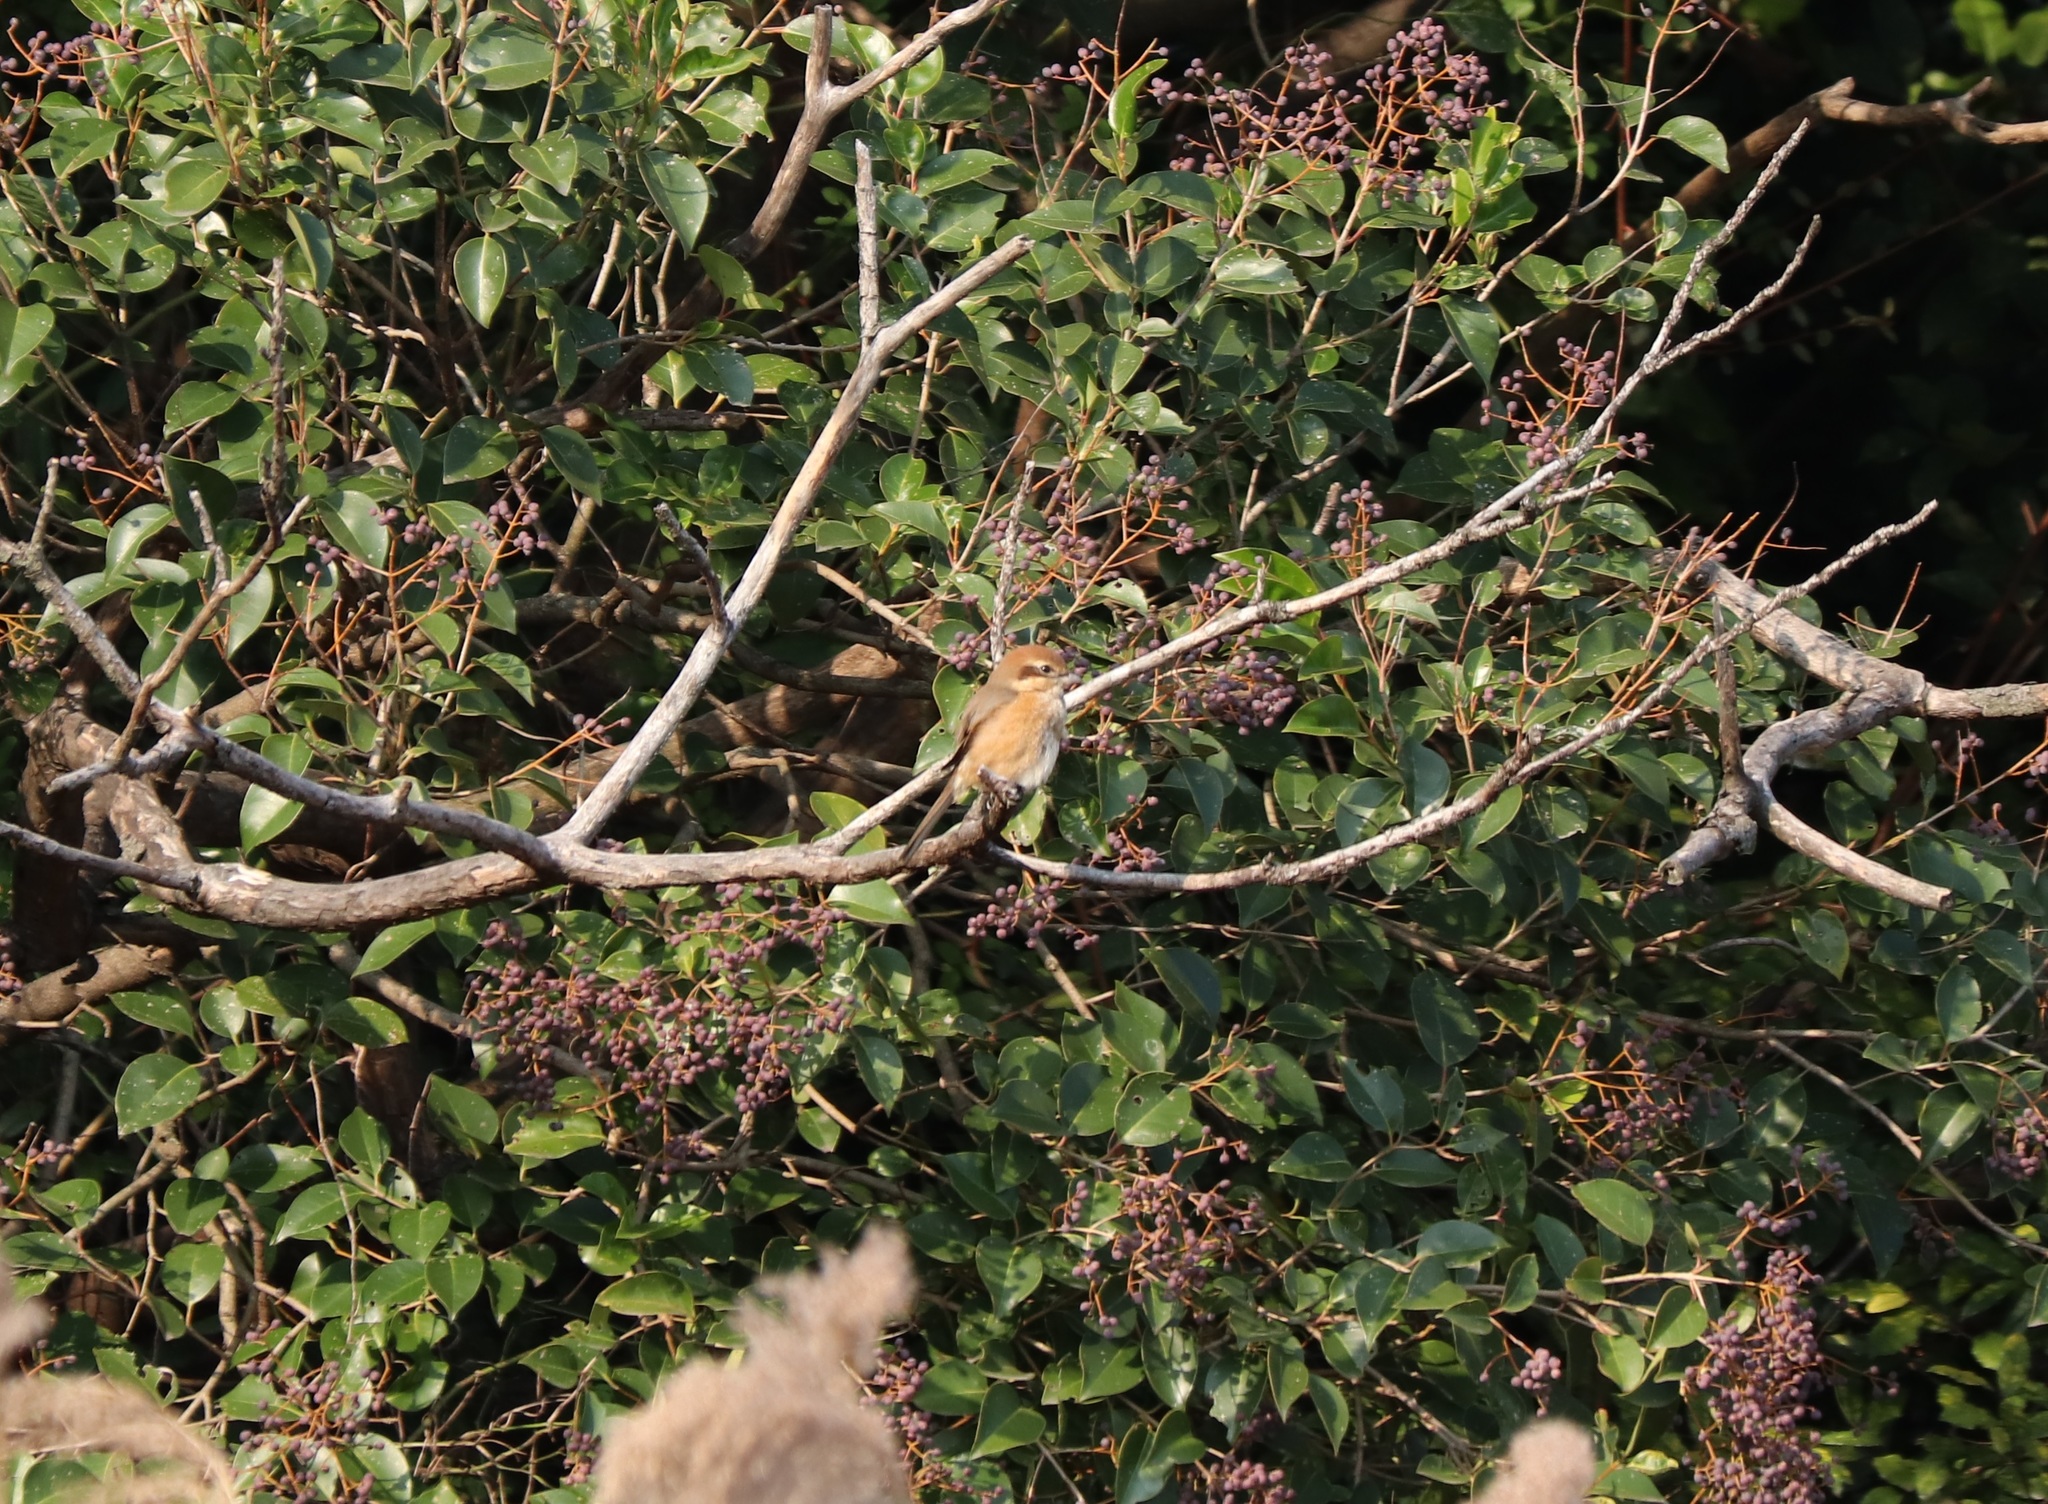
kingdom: Animalia
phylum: Chordata
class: Aves
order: Passeriformes
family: Laniidae
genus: Lanius
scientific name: Lanius bucephalus
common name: Bull-headed shrike
